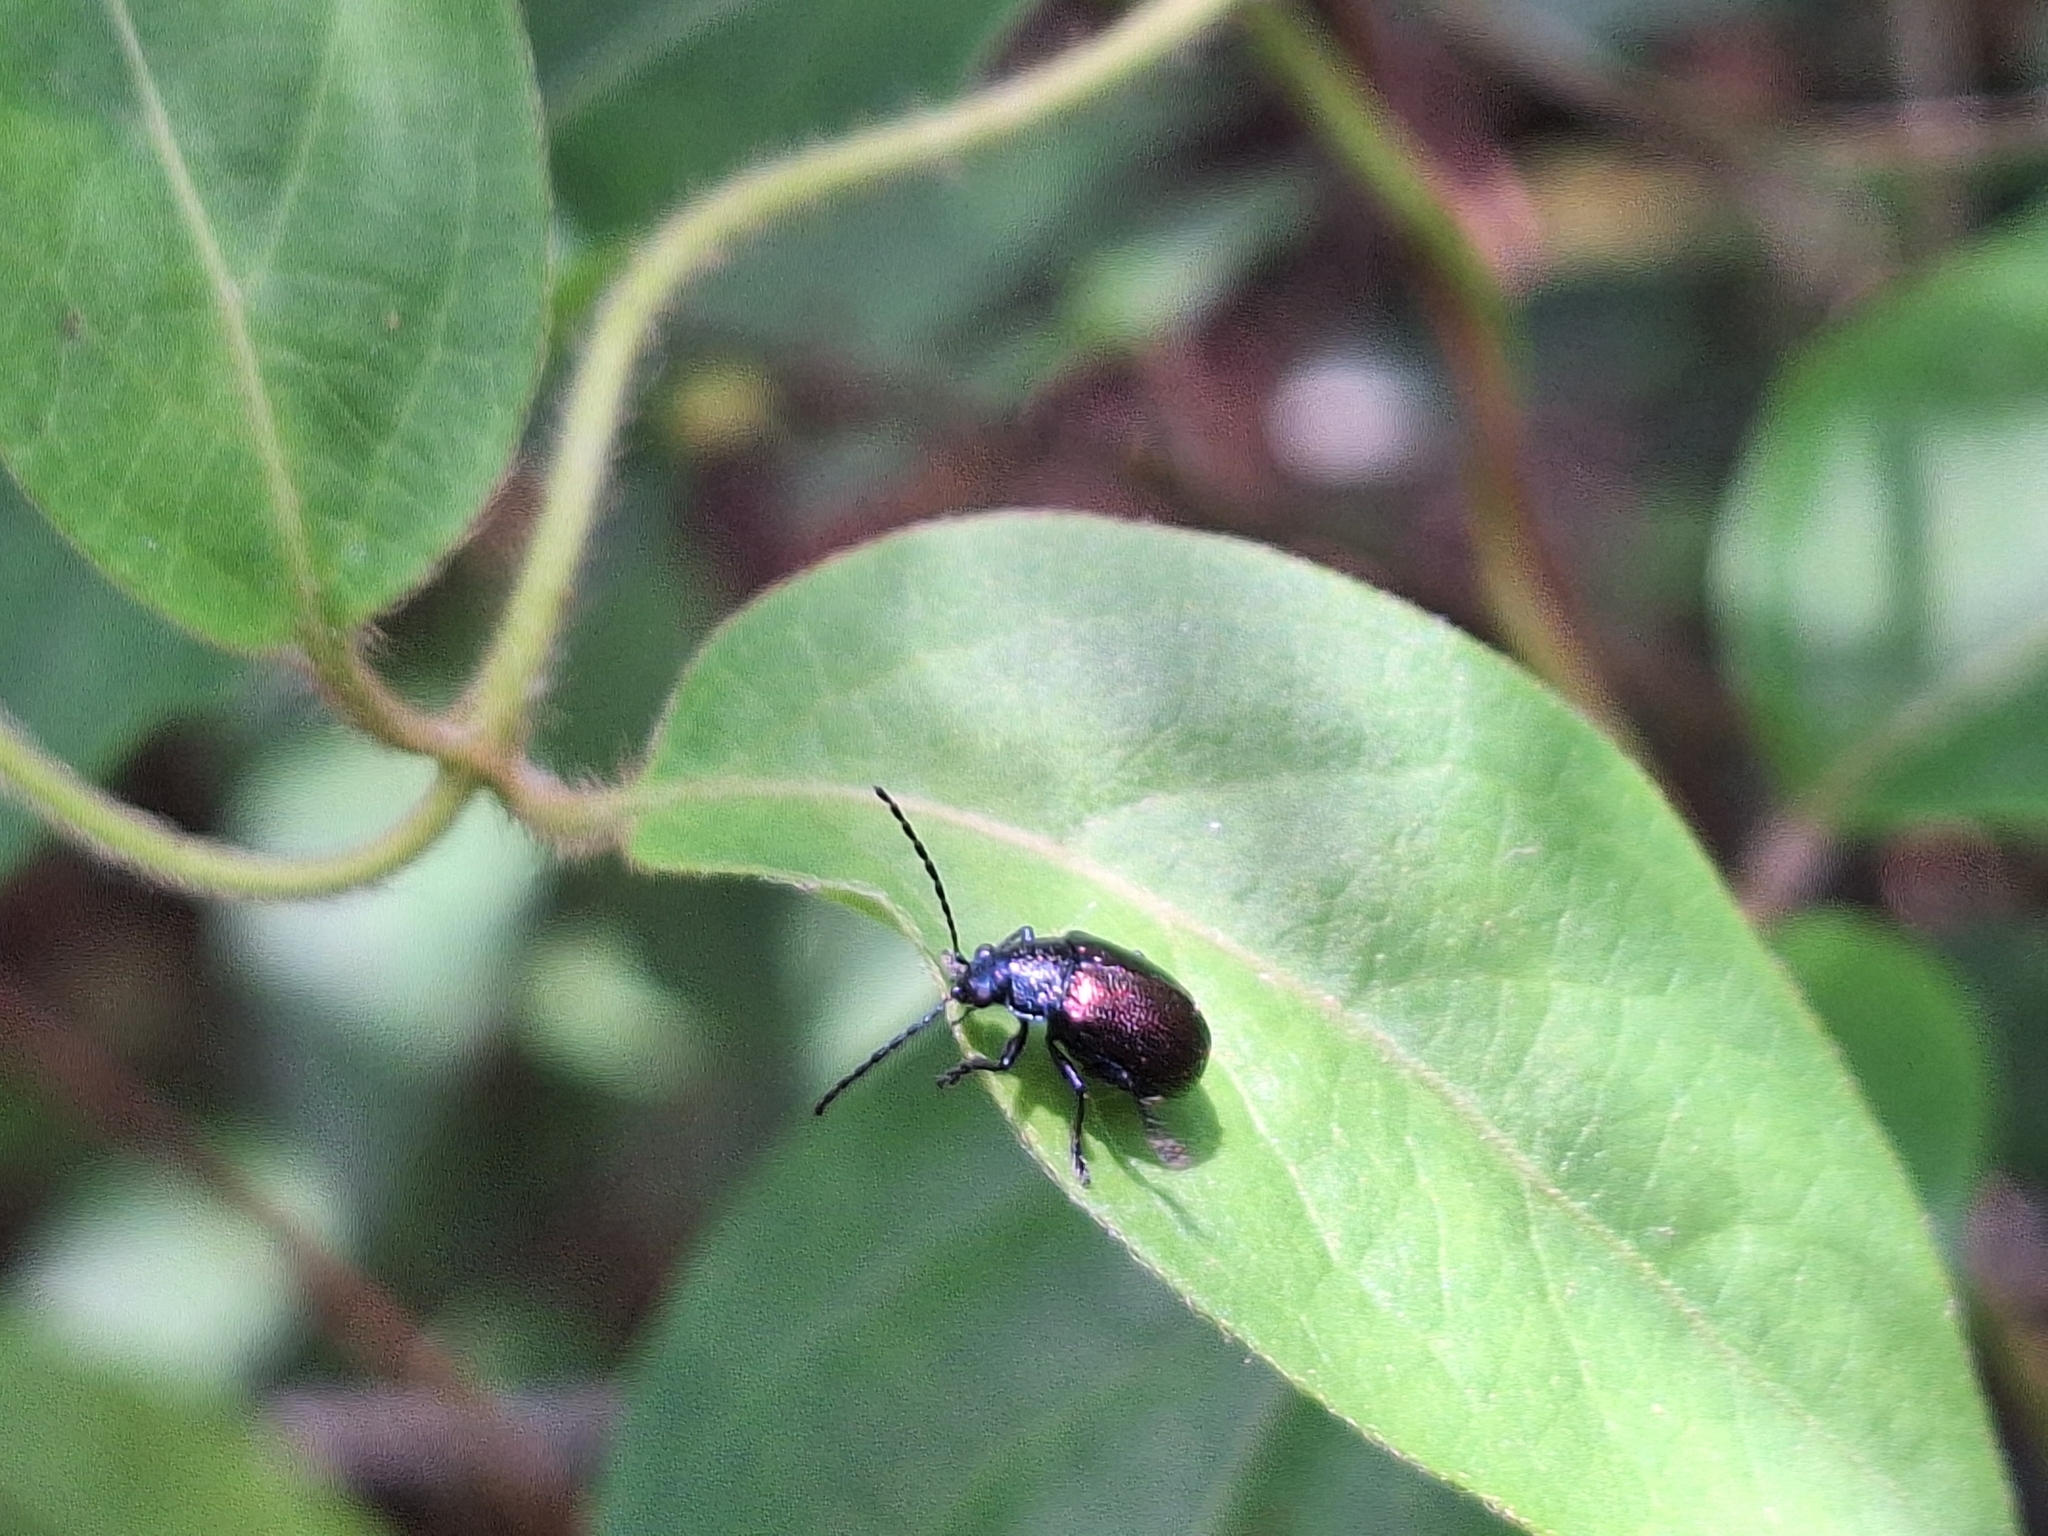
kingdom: Animalia
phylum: Arthropoda
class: Insecta
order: Coleoptera
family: Chrysomelidae
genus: Freudeita
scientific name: Freudeita
